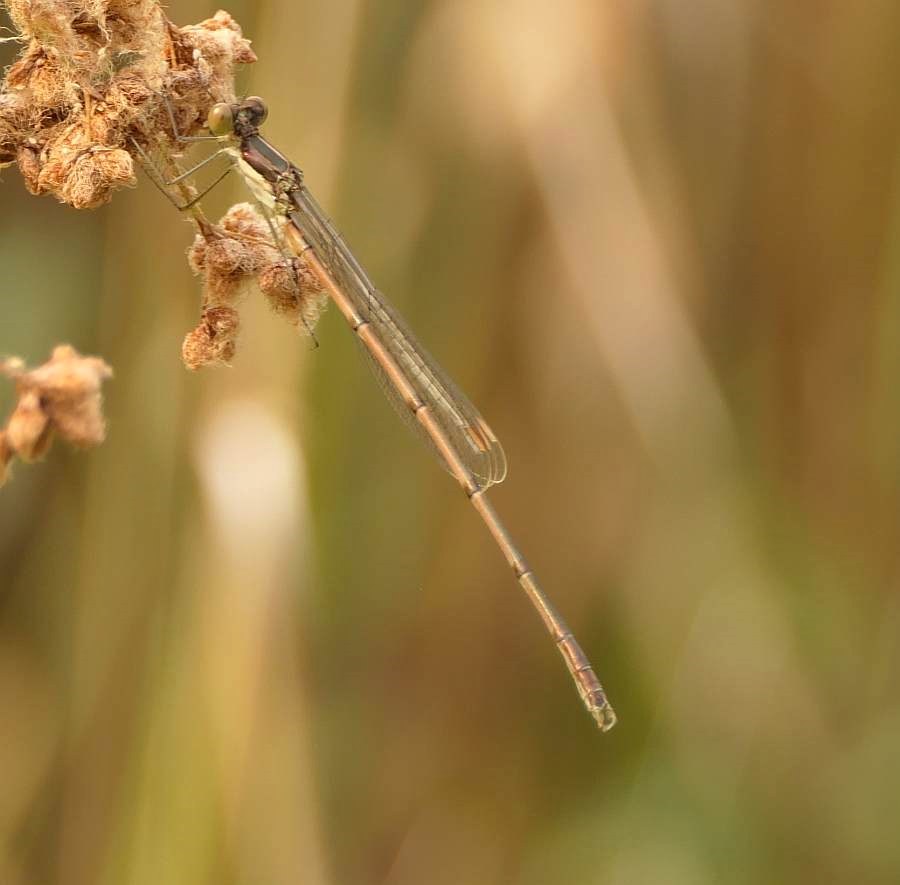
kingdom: Animalia
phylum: Arthropoda
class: Insecta
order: Odonata
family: Lestidae
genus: Lestes
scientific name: Lestes rectangularis
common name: Slender spreadwing
